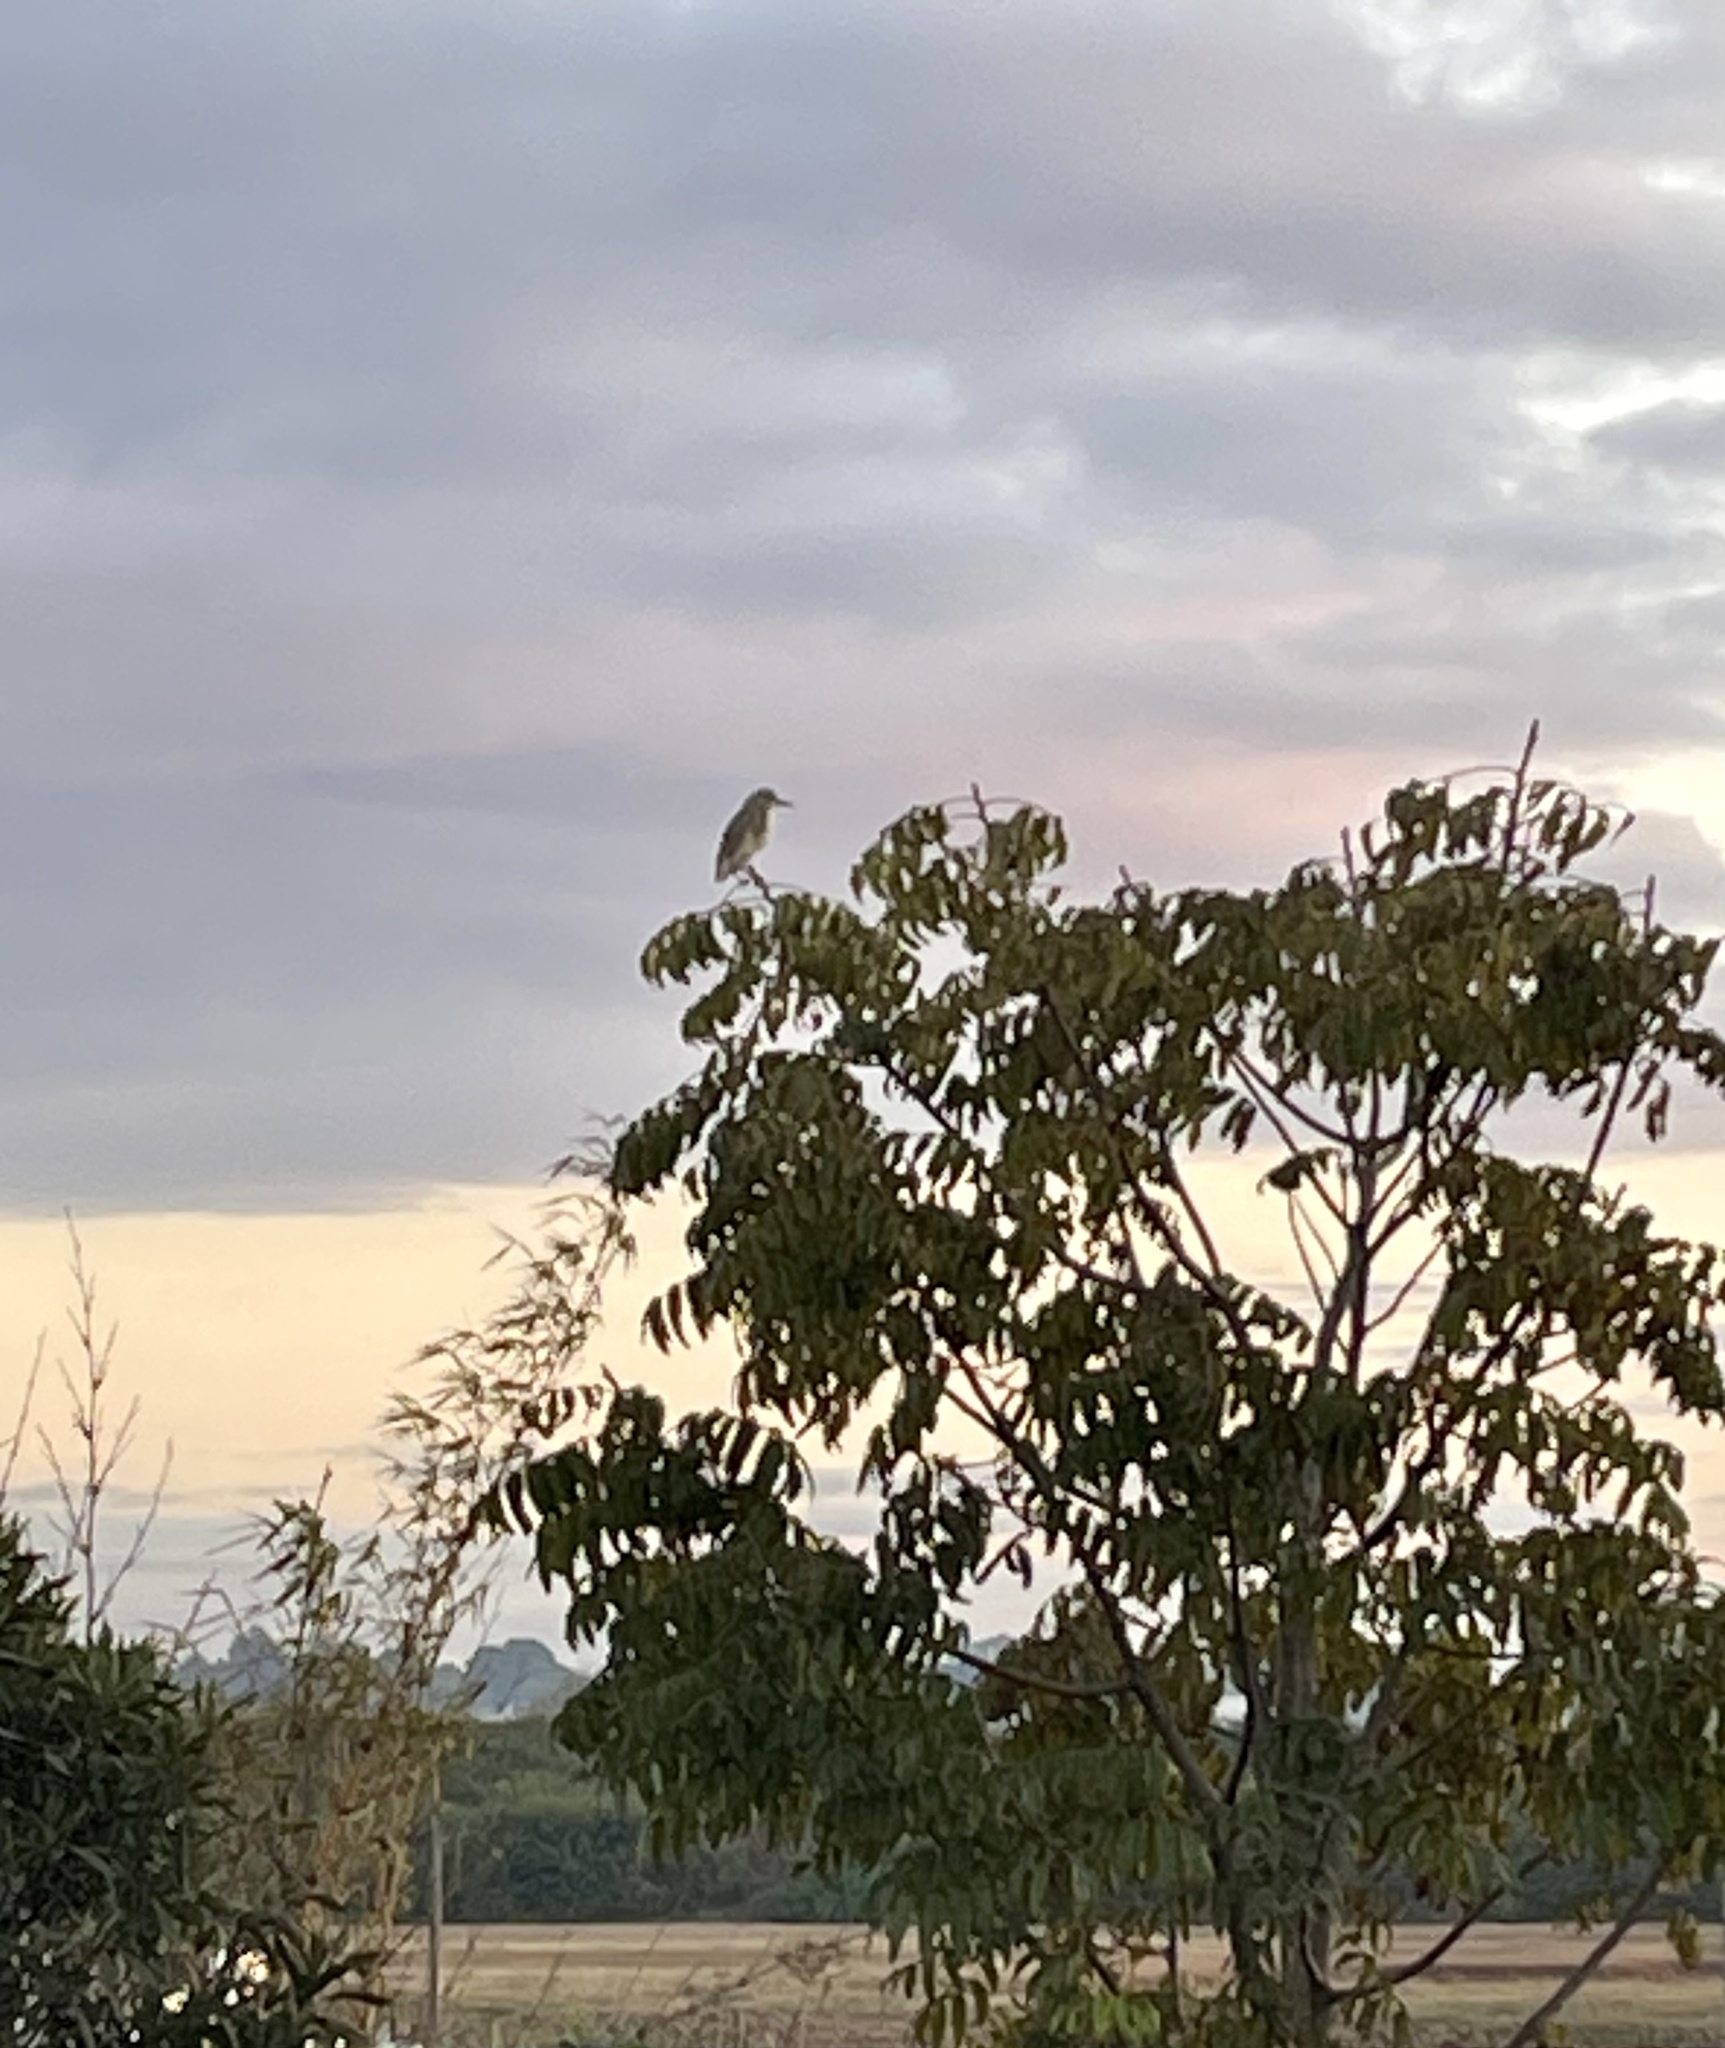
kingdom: Animalia
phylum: Chordata
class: Aves
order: Pelecaniformes
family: Ardeidae
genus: Ardeola
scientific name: Ardeola ralloides
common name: Squacco heron
